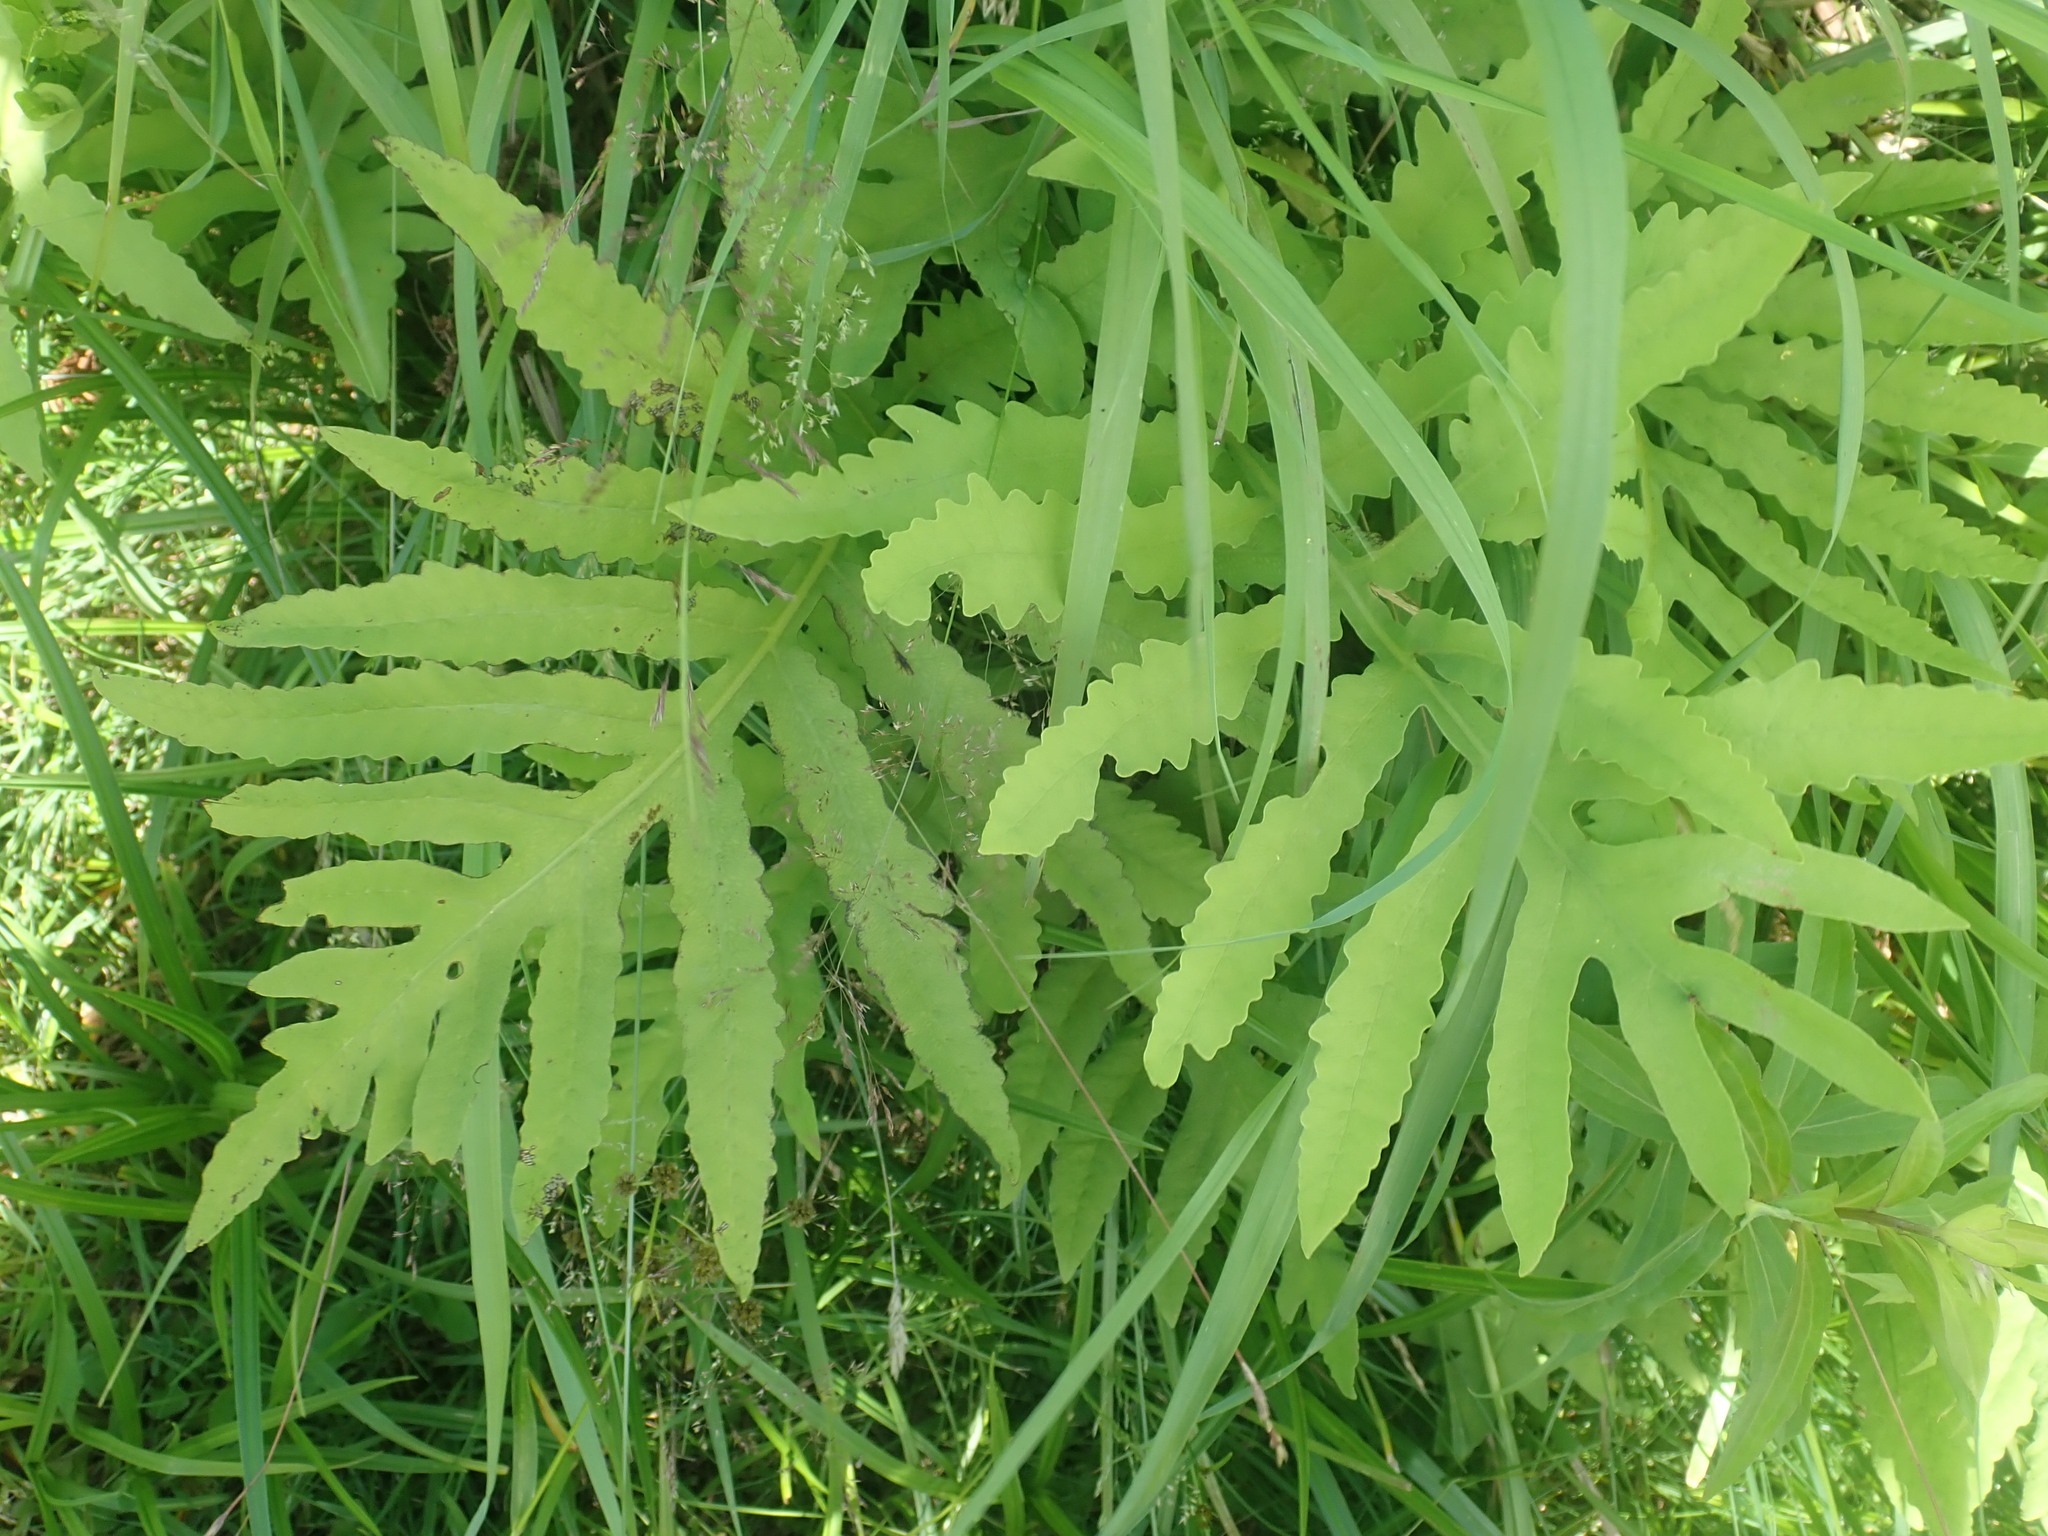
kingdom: Plantae
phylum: Tracheophyta
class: Polypodiopsida
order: Polypodiales
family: Onocleaceae
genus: Onoclea
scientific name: Onoclea sensibilis
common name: Sensitive fern
